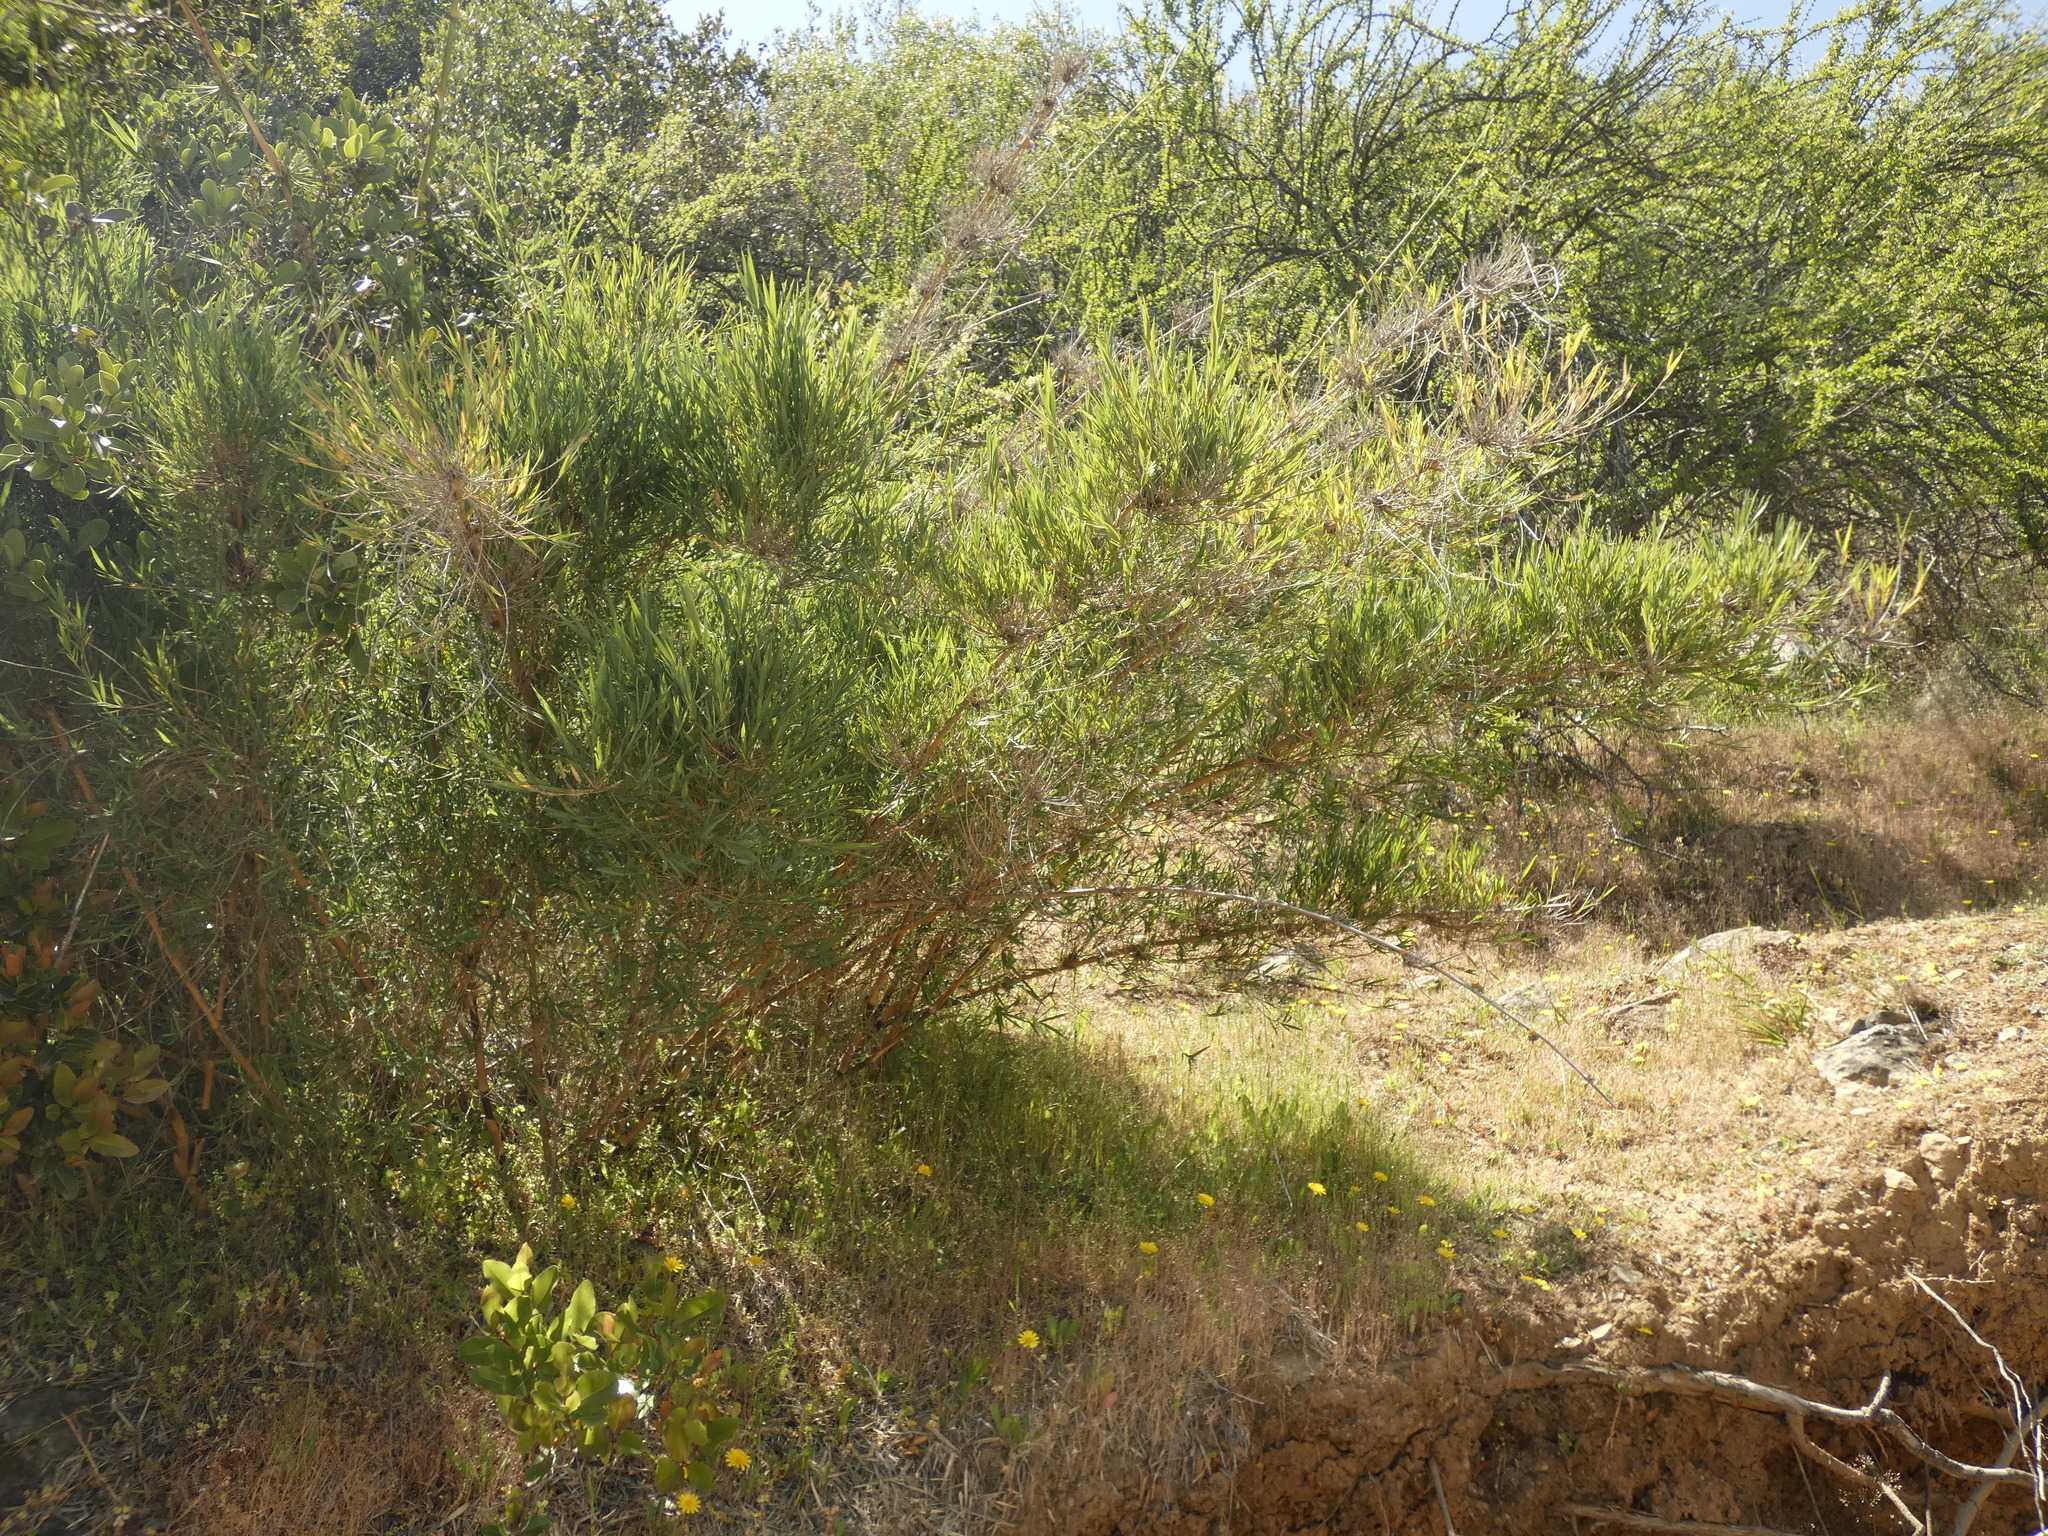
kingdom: Plantae
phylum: Tracheophyta
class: Liliopsida
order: Poales
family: Poaceae
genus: Chusquea
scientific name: Chusquea quila
